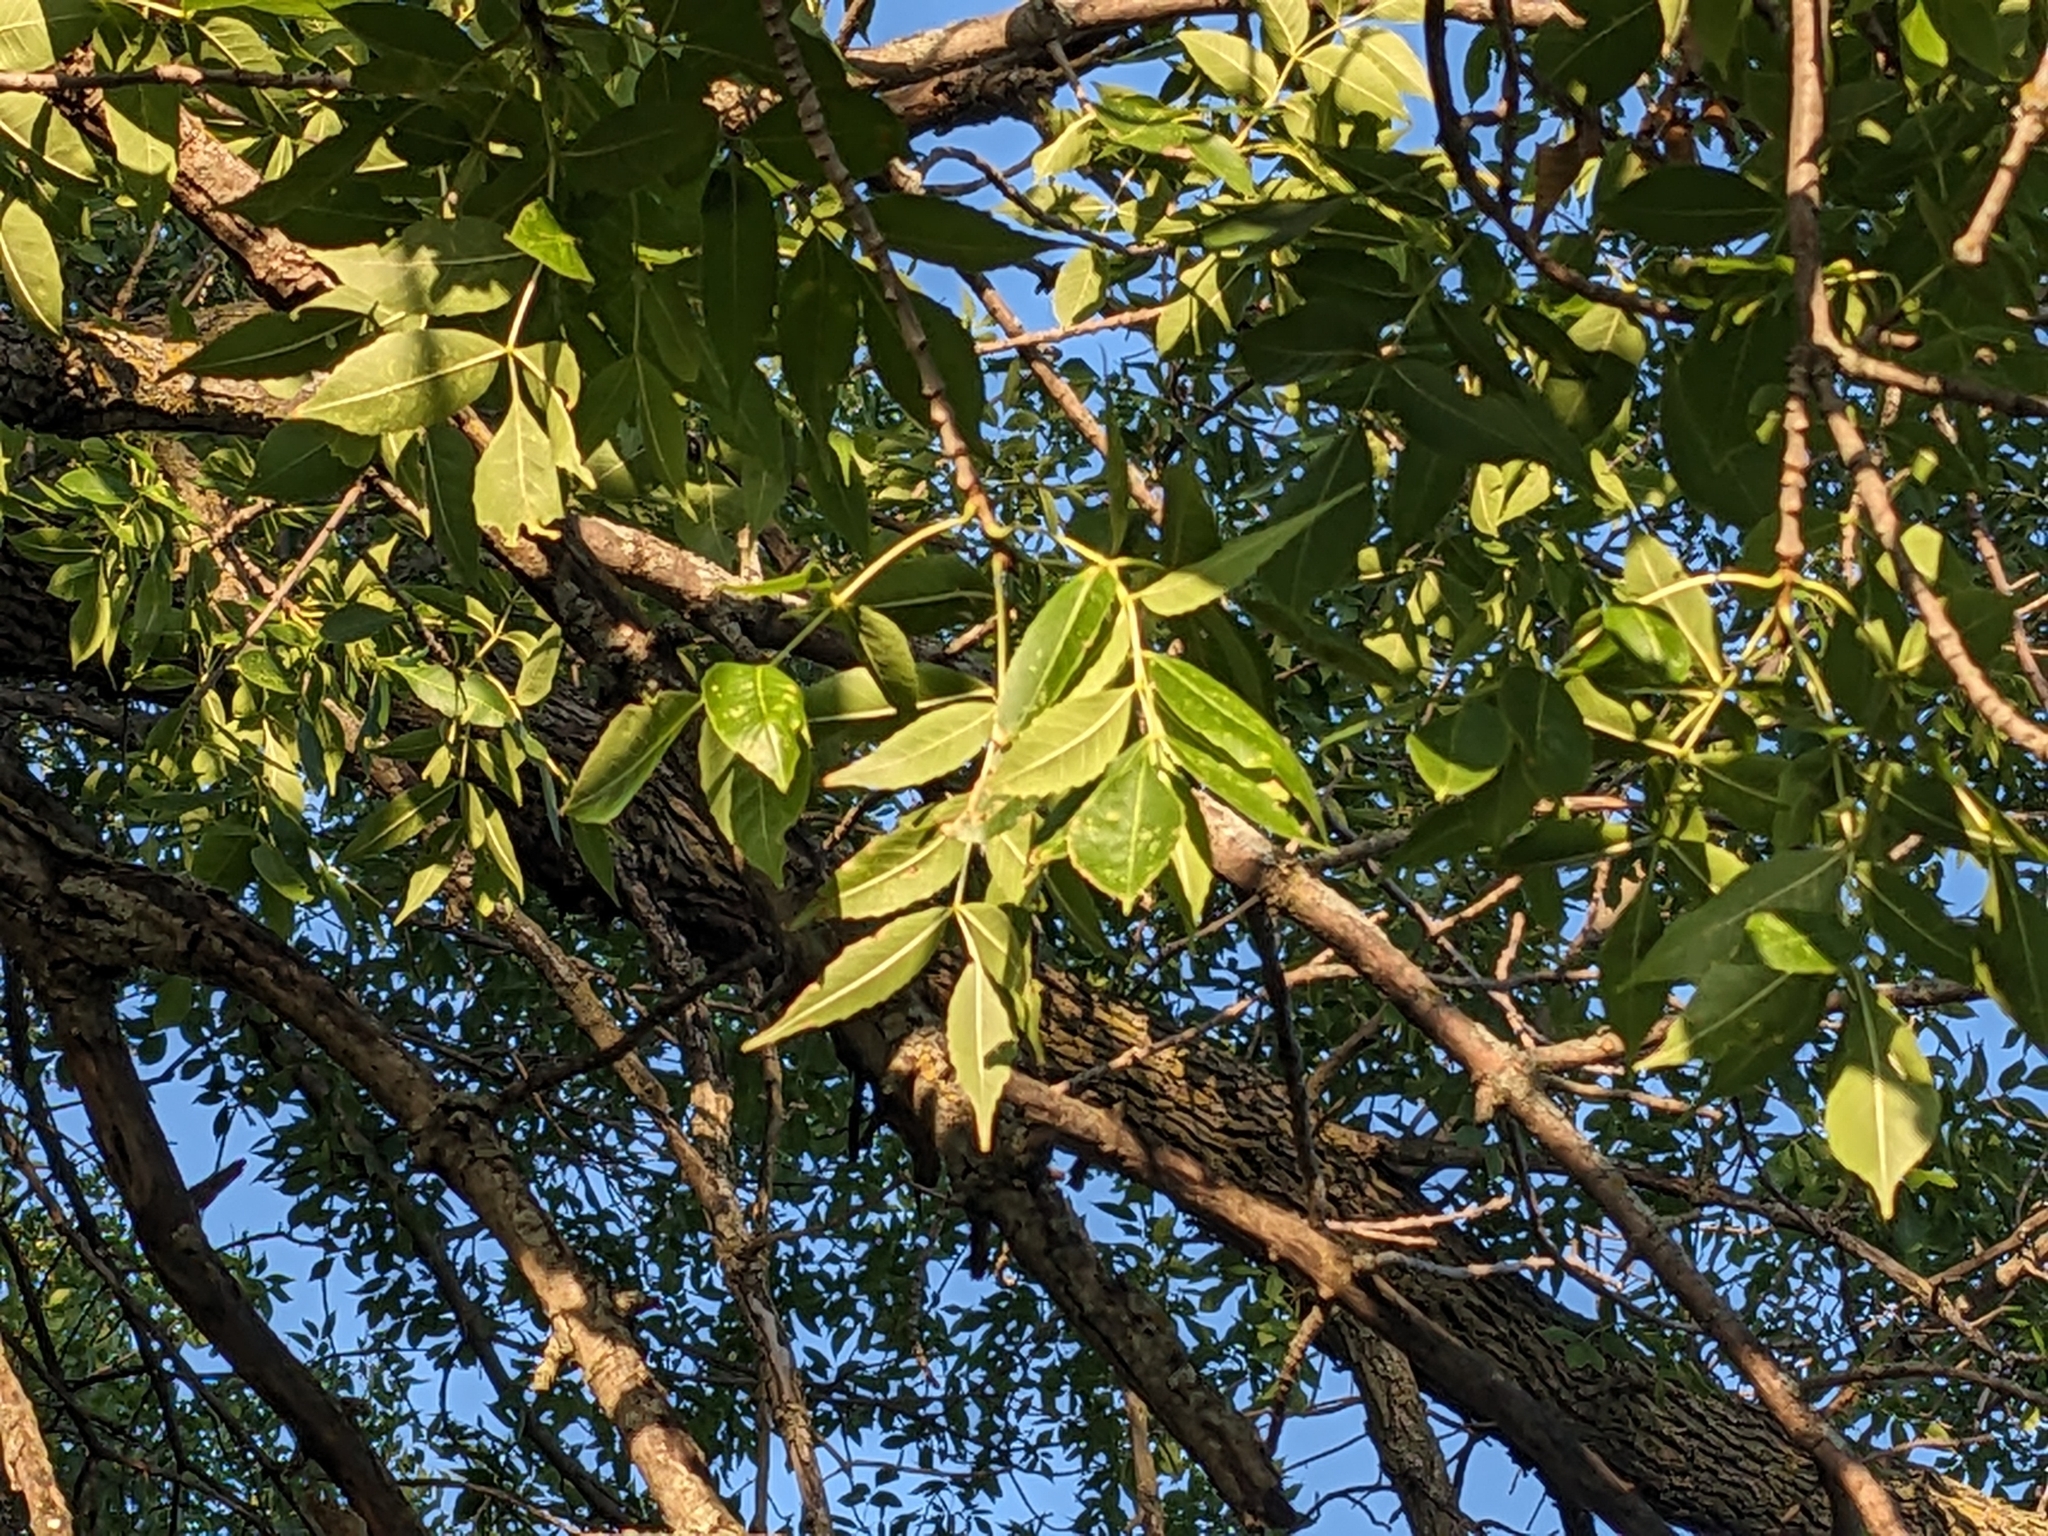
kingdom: Plantae
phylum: Tracheophyta
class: Magnoliopsida
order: Lamiales
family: Oleaceae
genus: Fraxinus
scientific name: Fraxinus pennsylvanica
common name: Green ash
